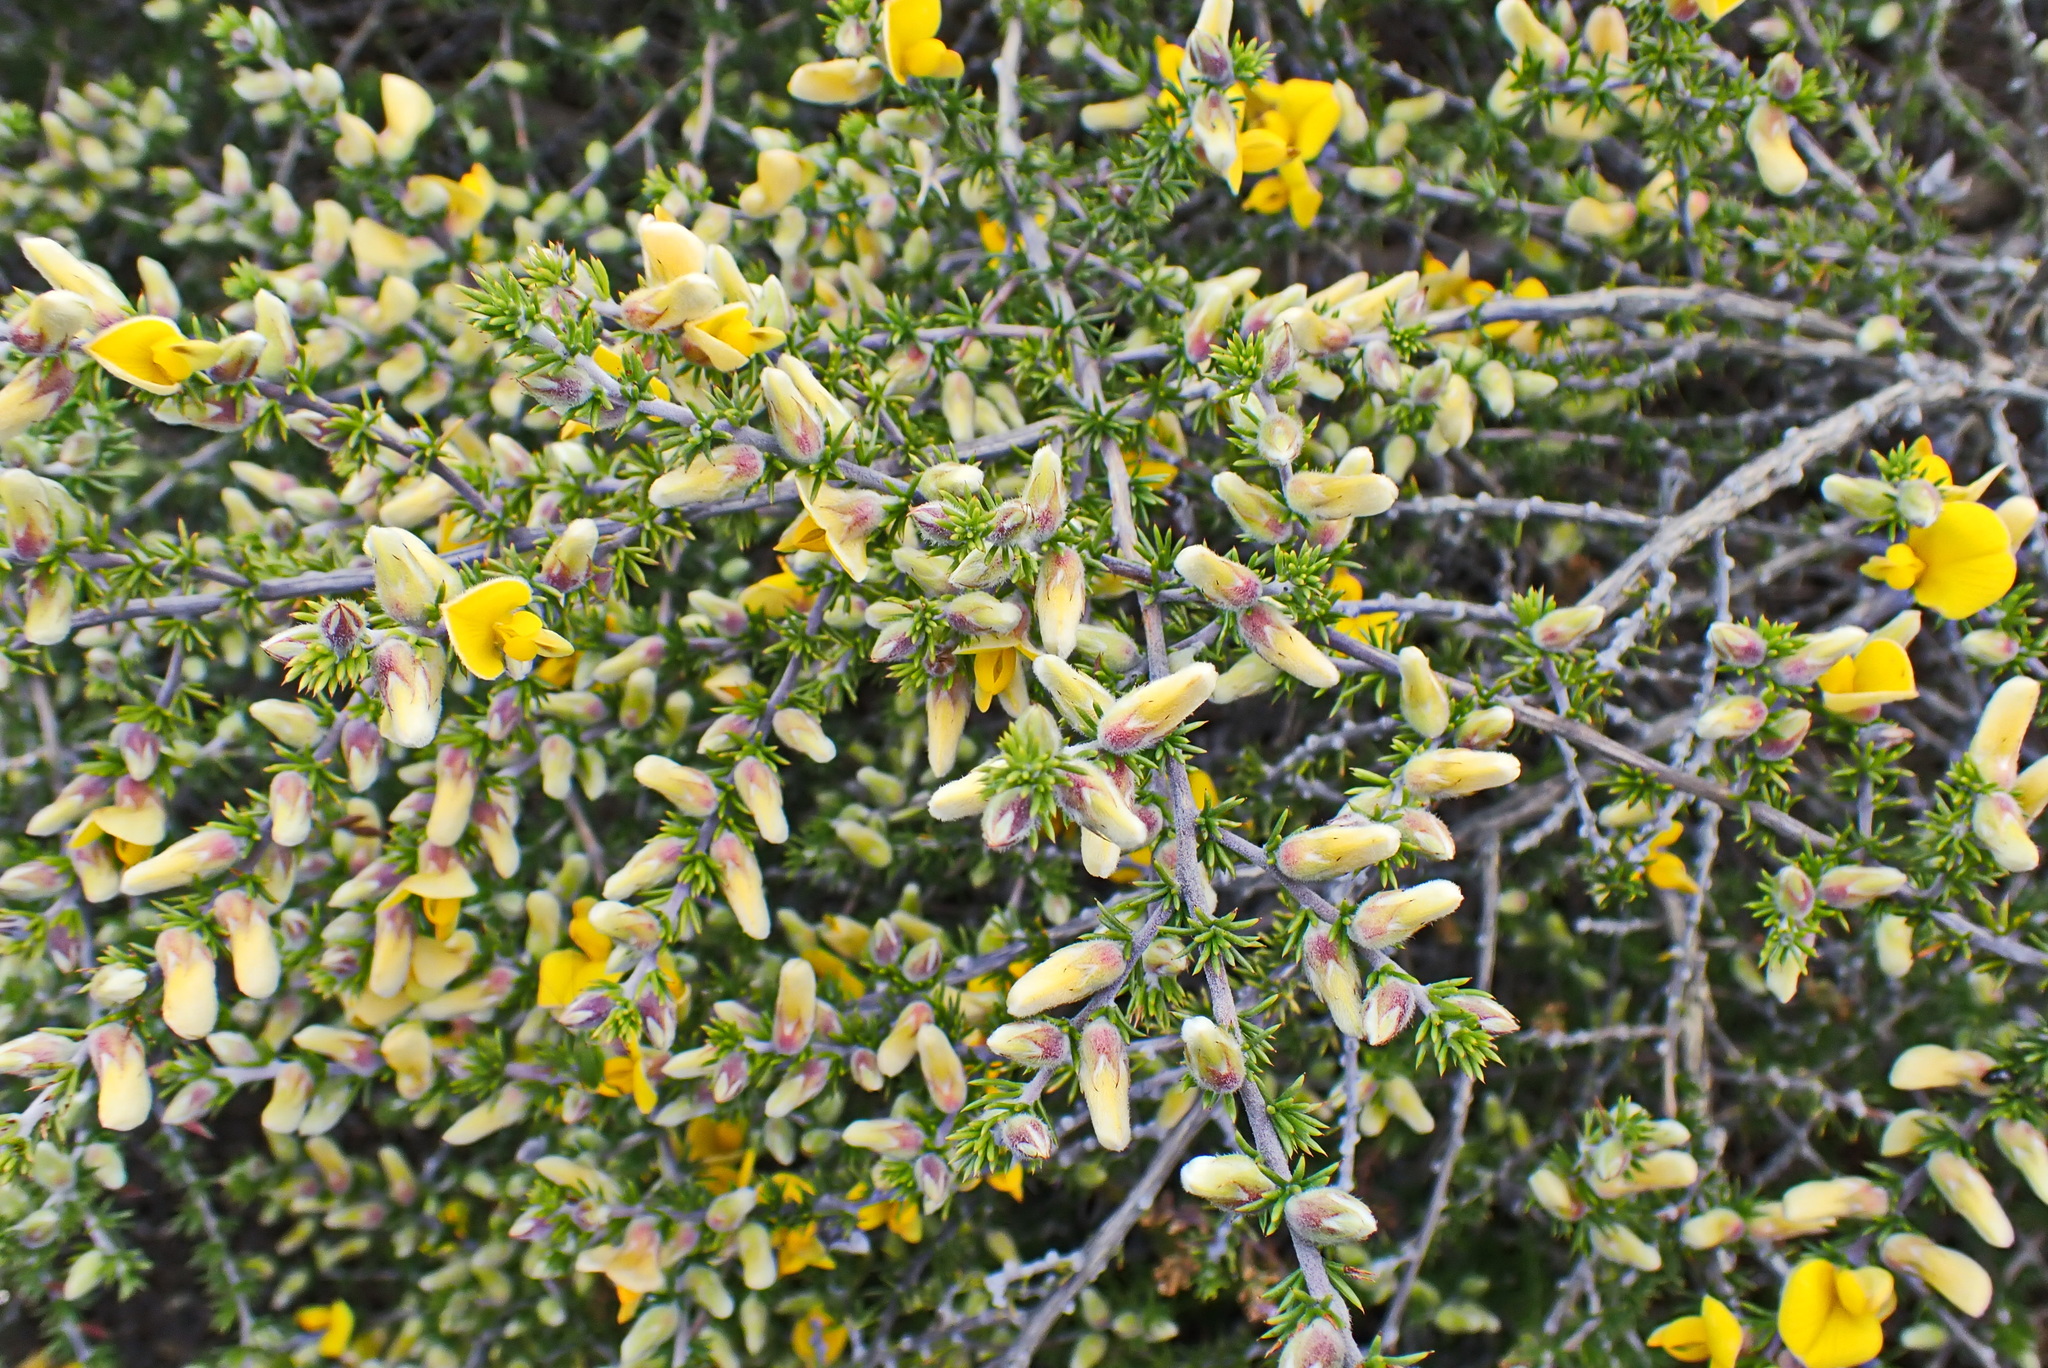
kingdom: Plantae
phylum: Tracheophyta
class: Magnoliopsida
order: Fabales
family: Fabaceae
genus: Aspalathus
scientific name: Aspalathus hirta
